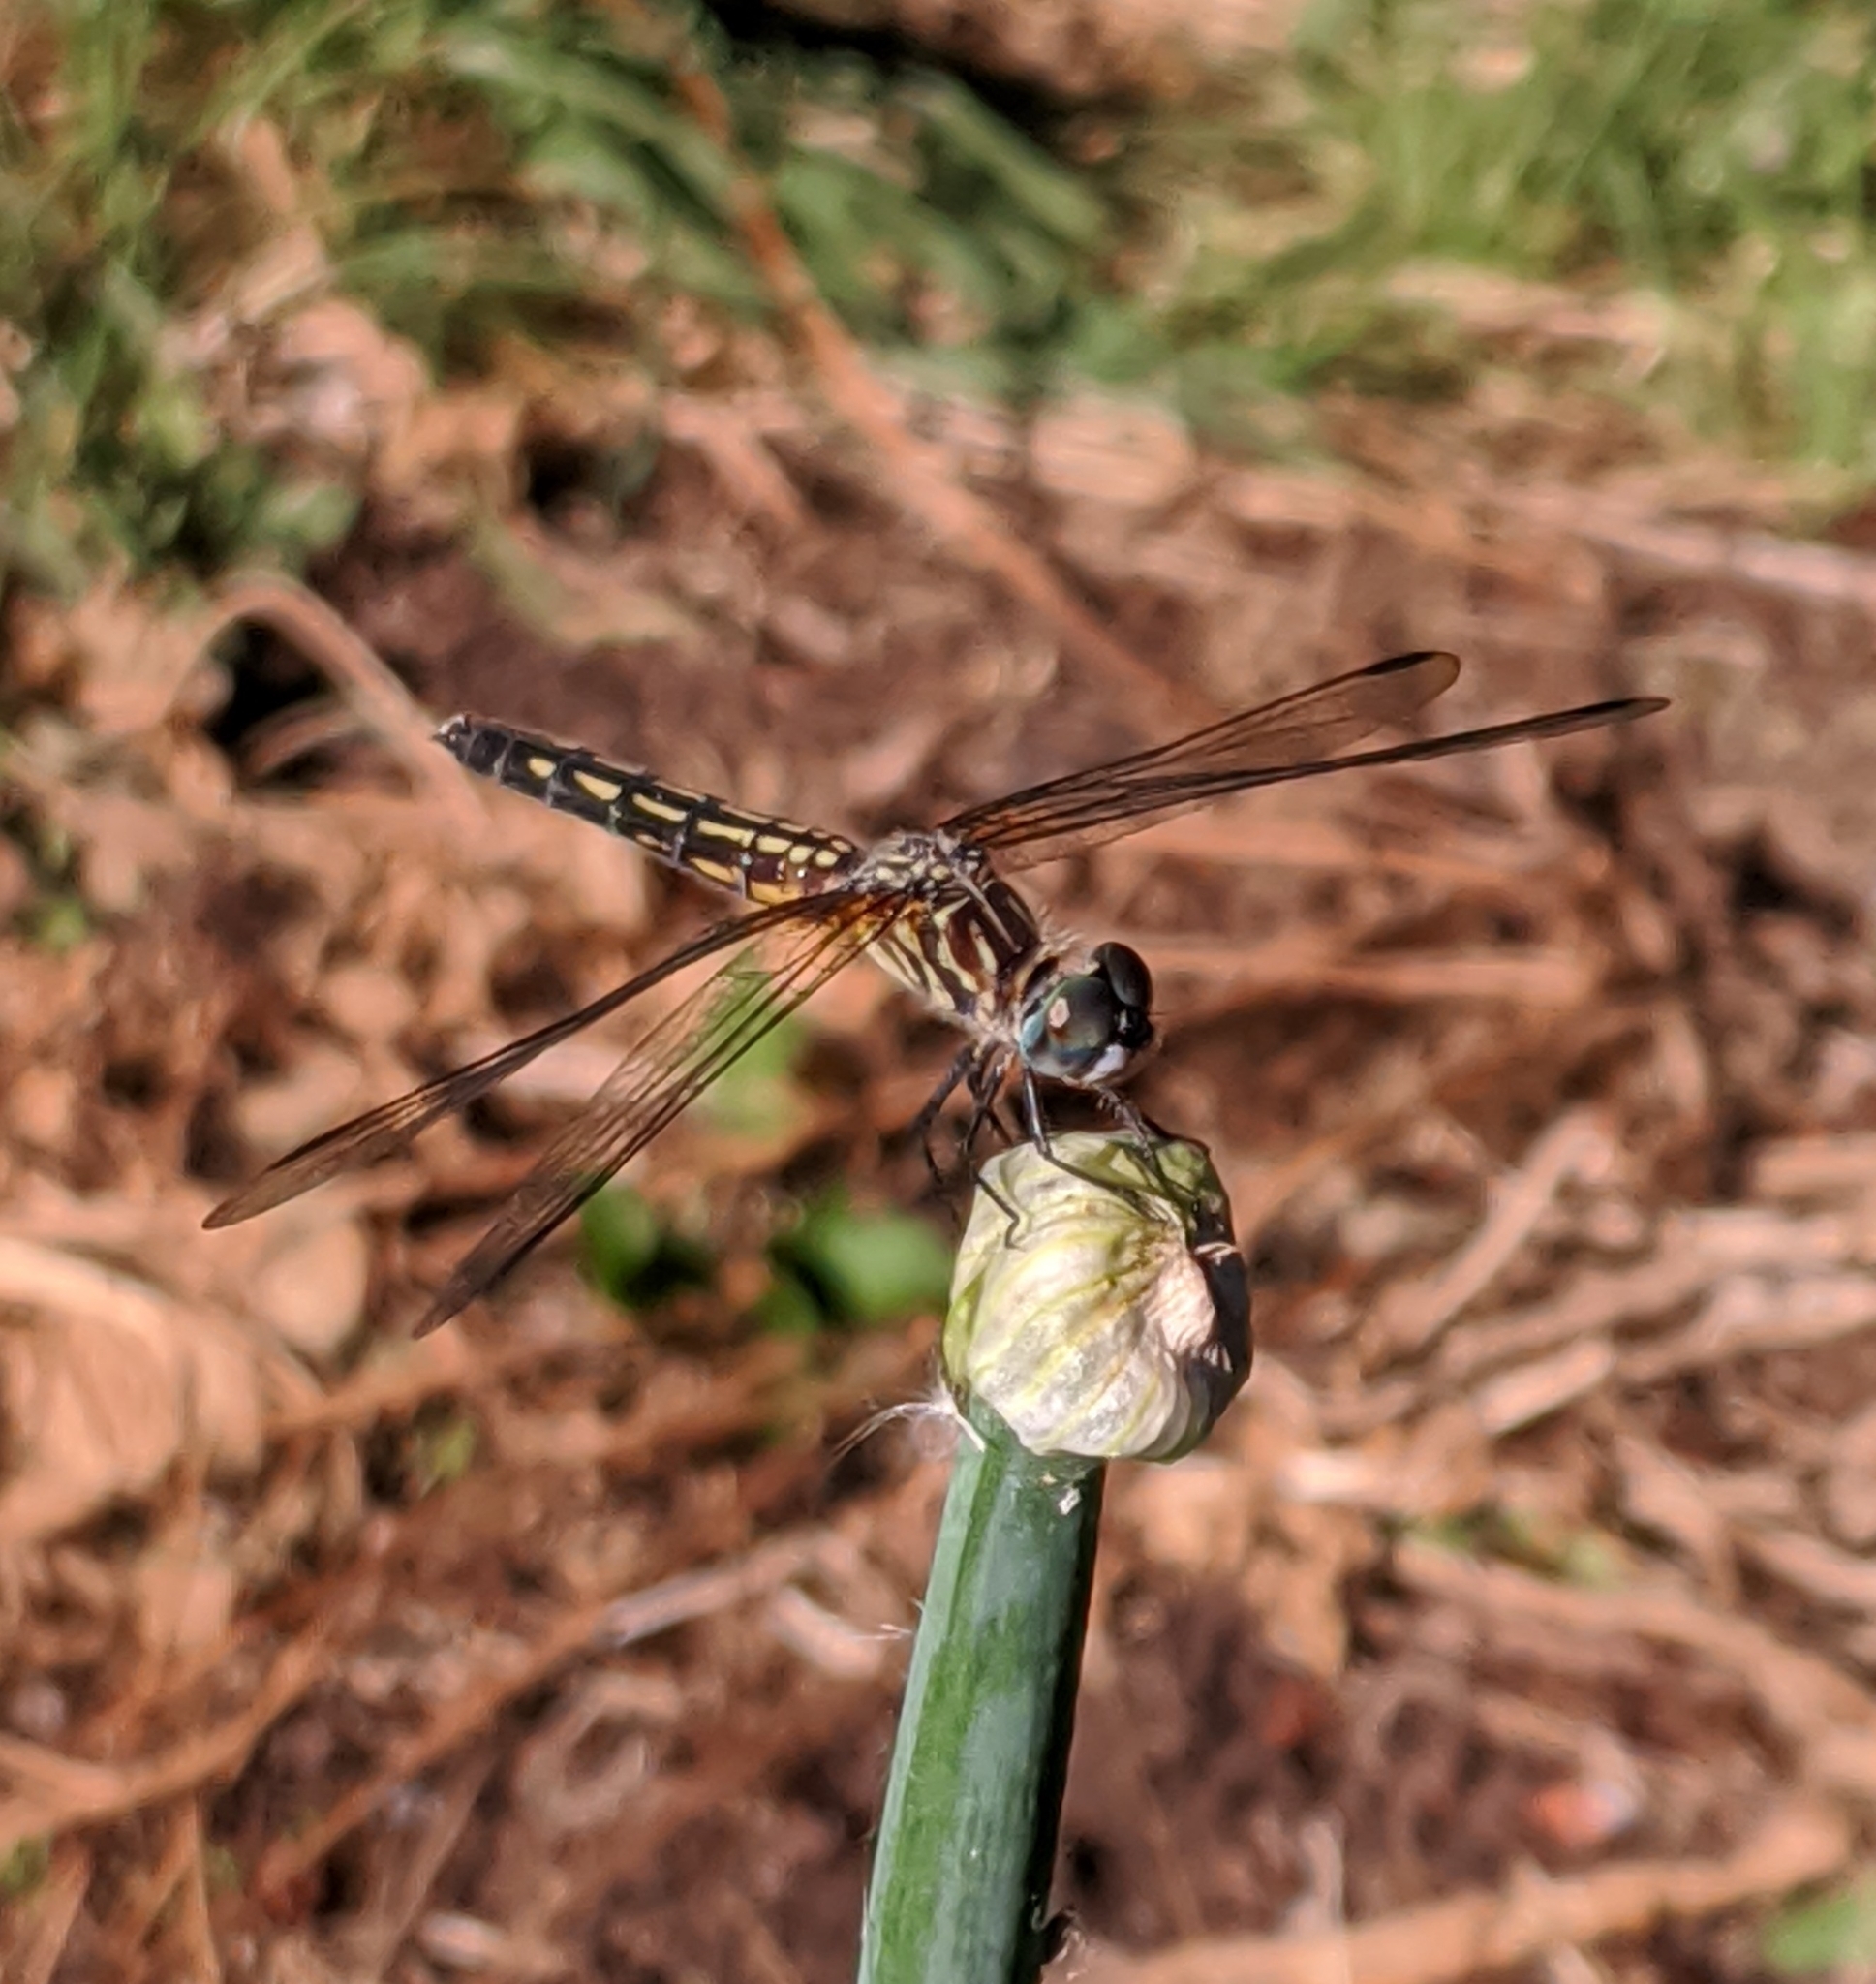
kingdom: Animalia
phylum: Arthropoda
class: Insecta
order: Odonata
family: Libellulidae
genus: Pachydiplax
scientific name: Pachydiplax longipennis
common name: Blue dasher
